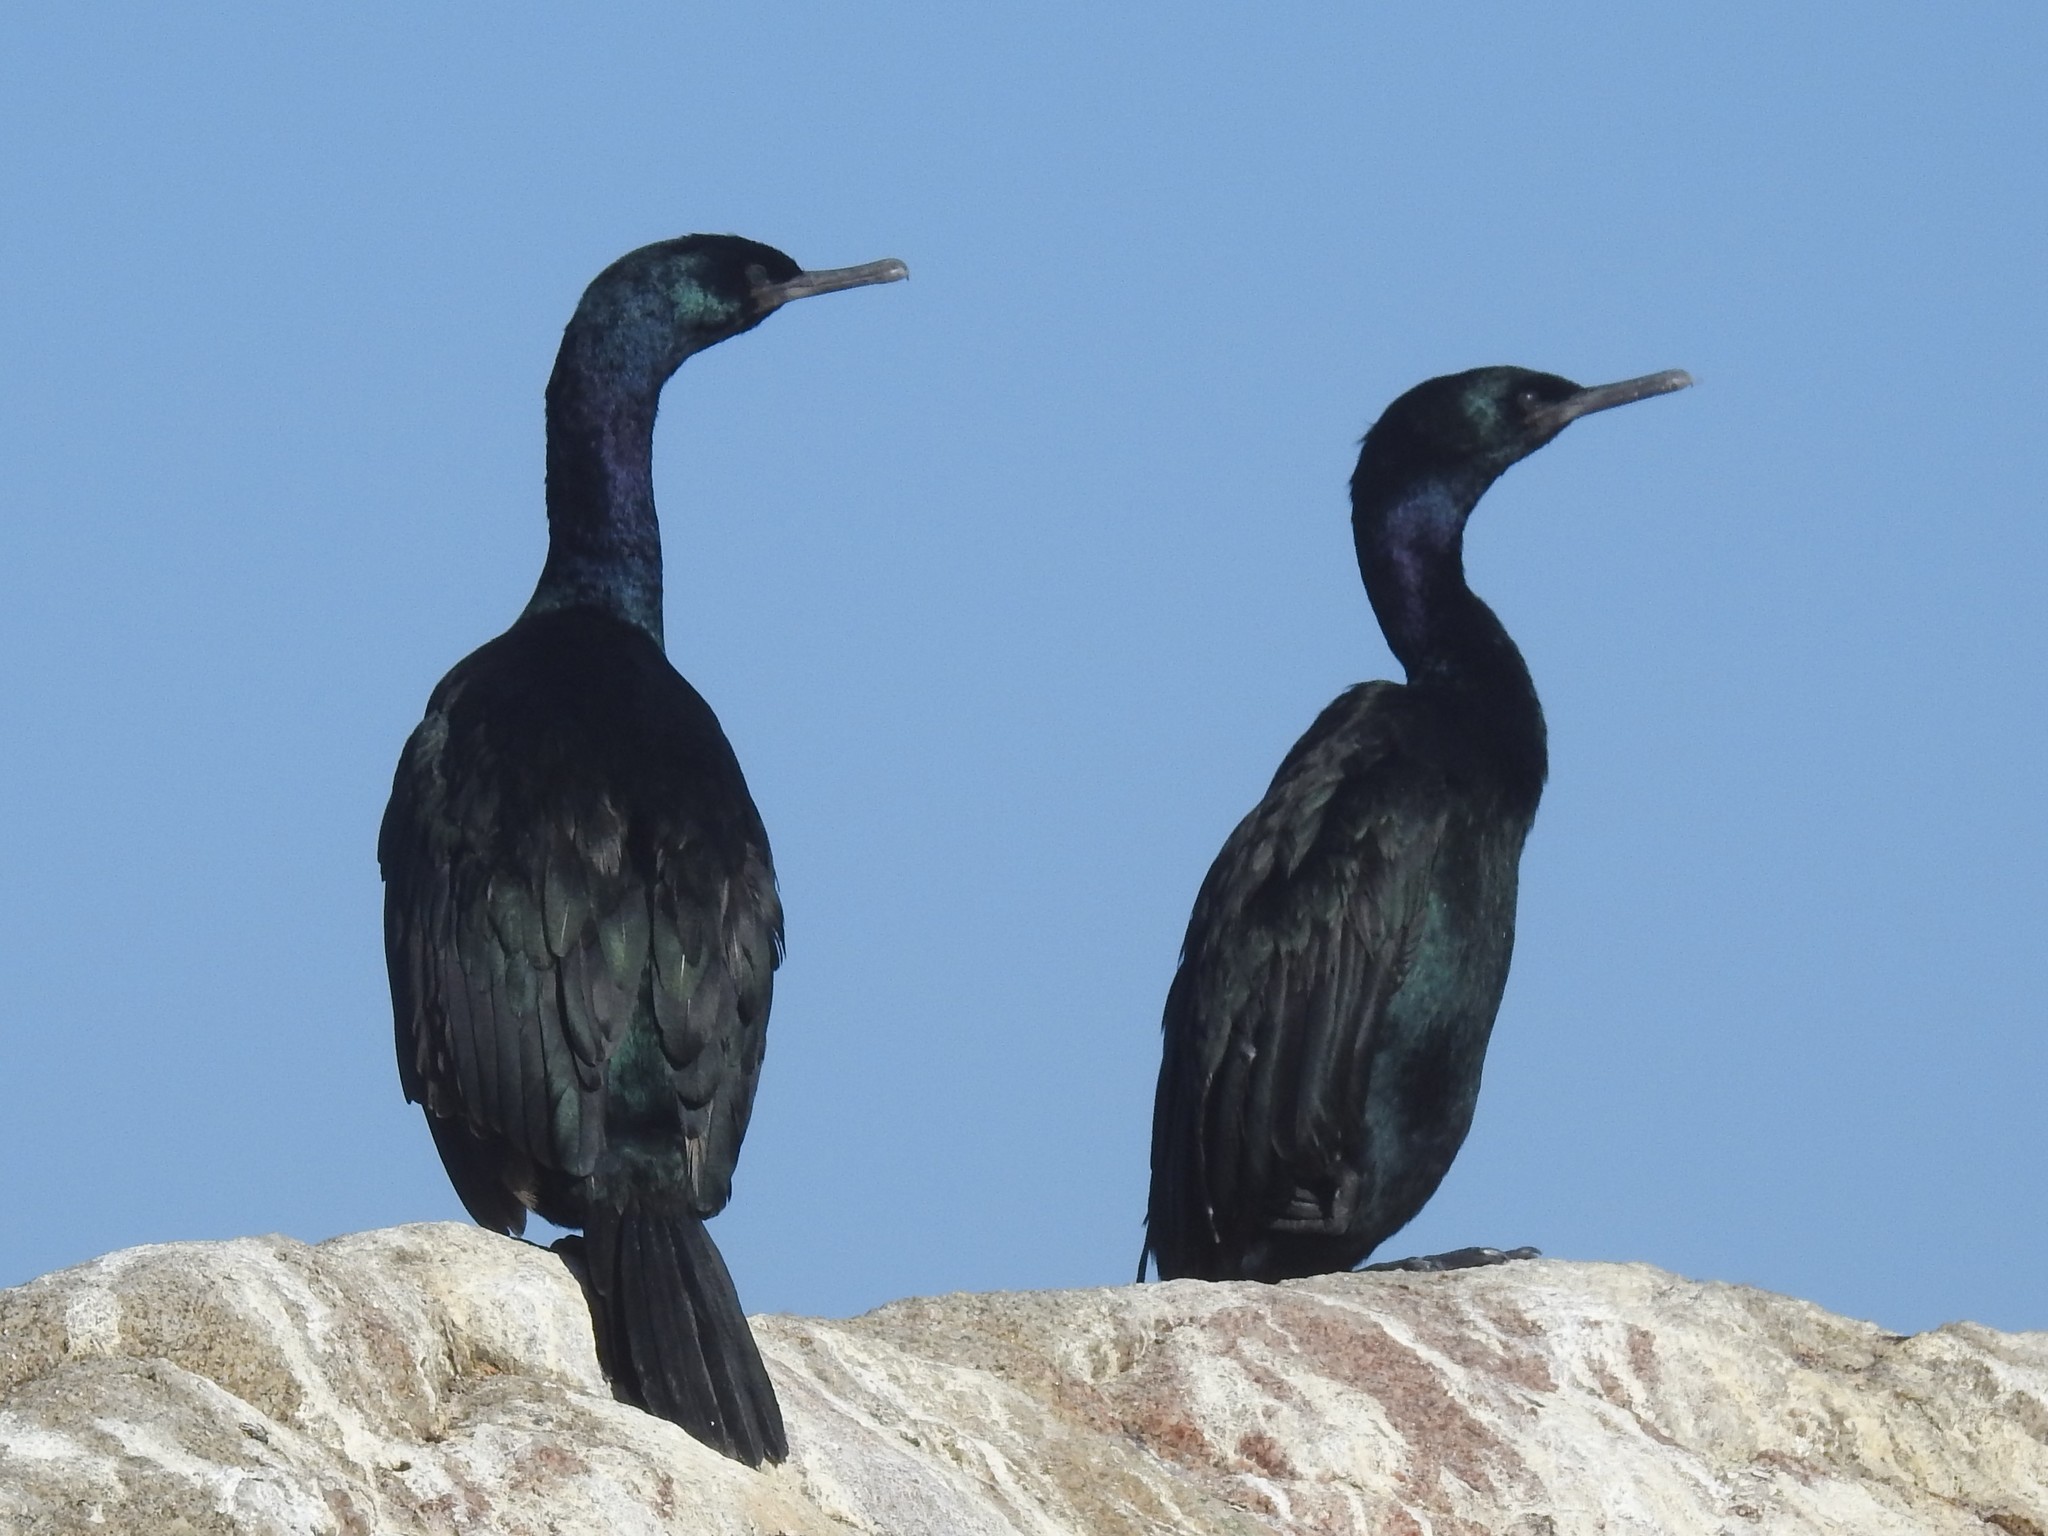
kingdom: Animalia
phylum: Chordata
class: Aves
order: Suliformes
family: Phalacrocoracidae
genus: Phalacrocorax
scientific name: Phalacrocorax pelagicus
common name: Pelagic cormorant
